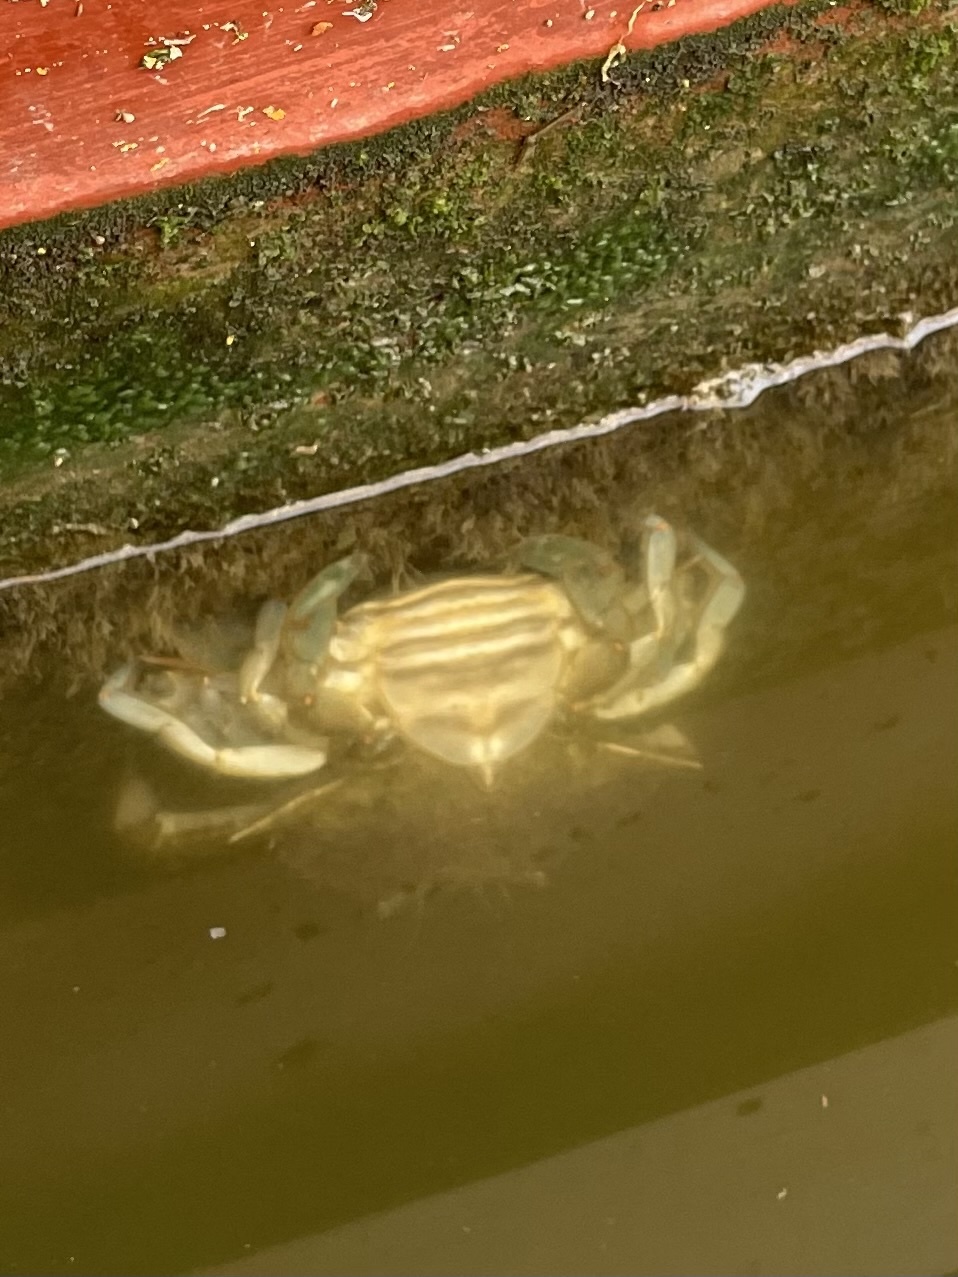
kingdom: Animalia
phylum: Arthropoda
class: Malacostraca
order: Decapoda
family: Portunidae
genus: Callinectes
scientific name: Callinectes sapidus
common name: Blue crab
